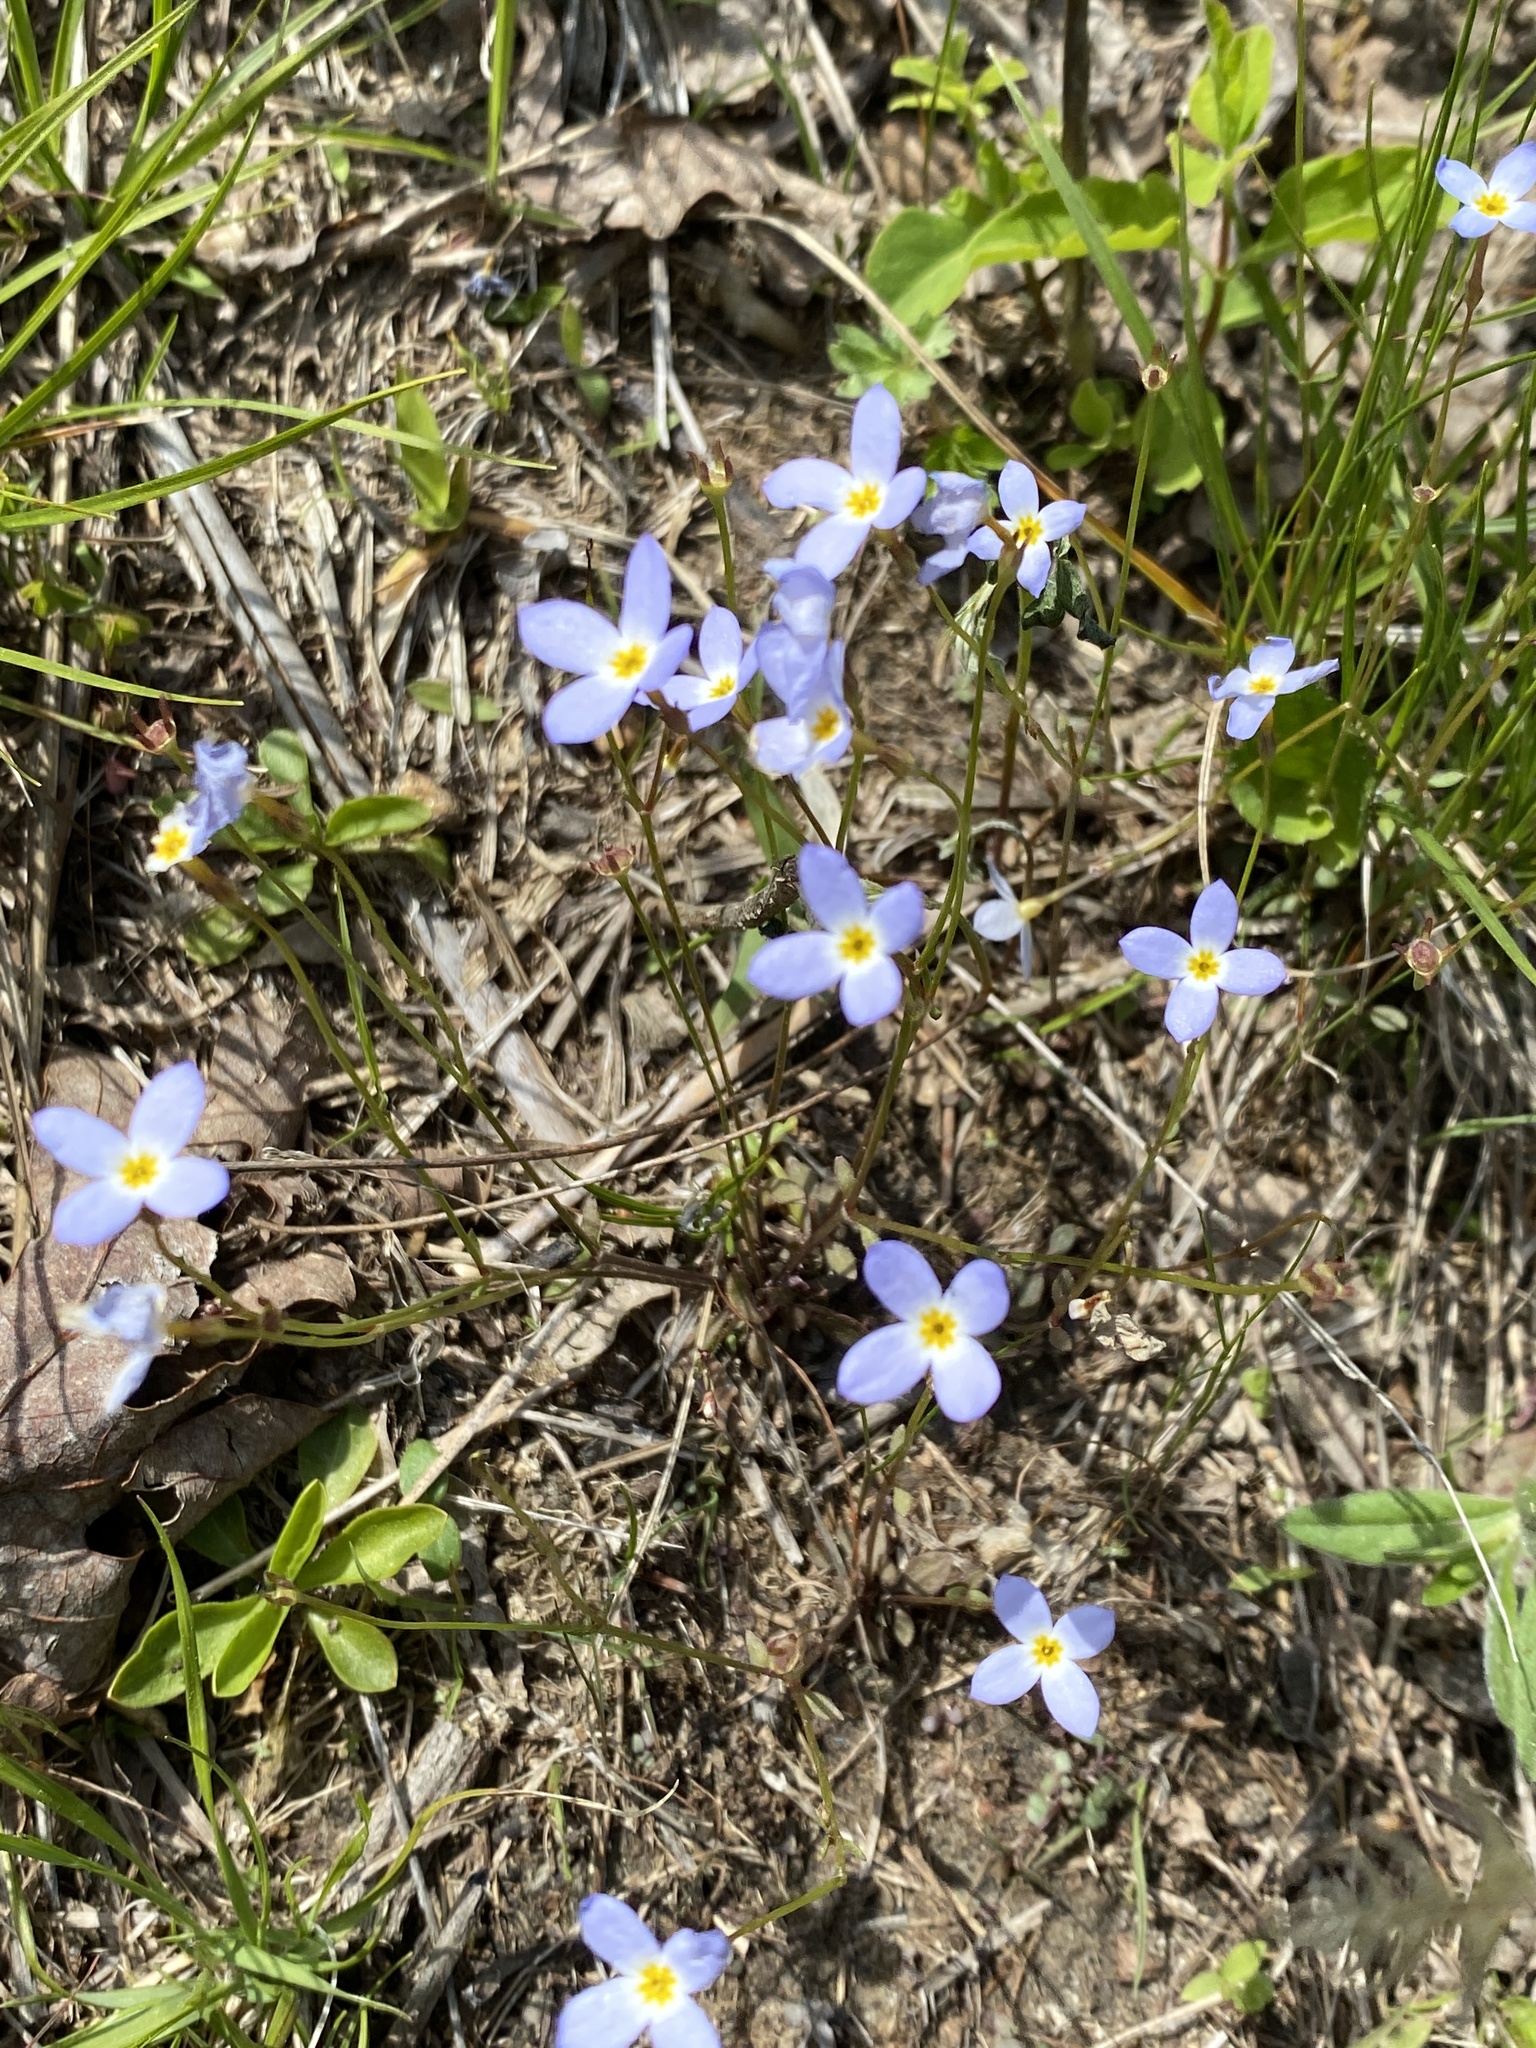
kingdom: Plantae
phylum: Tracheophyta
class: Magnoliopsida
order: Gentianales
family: Rubiaceae
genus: Houstonia
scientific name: Houstonia caerulea
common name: Bluets
